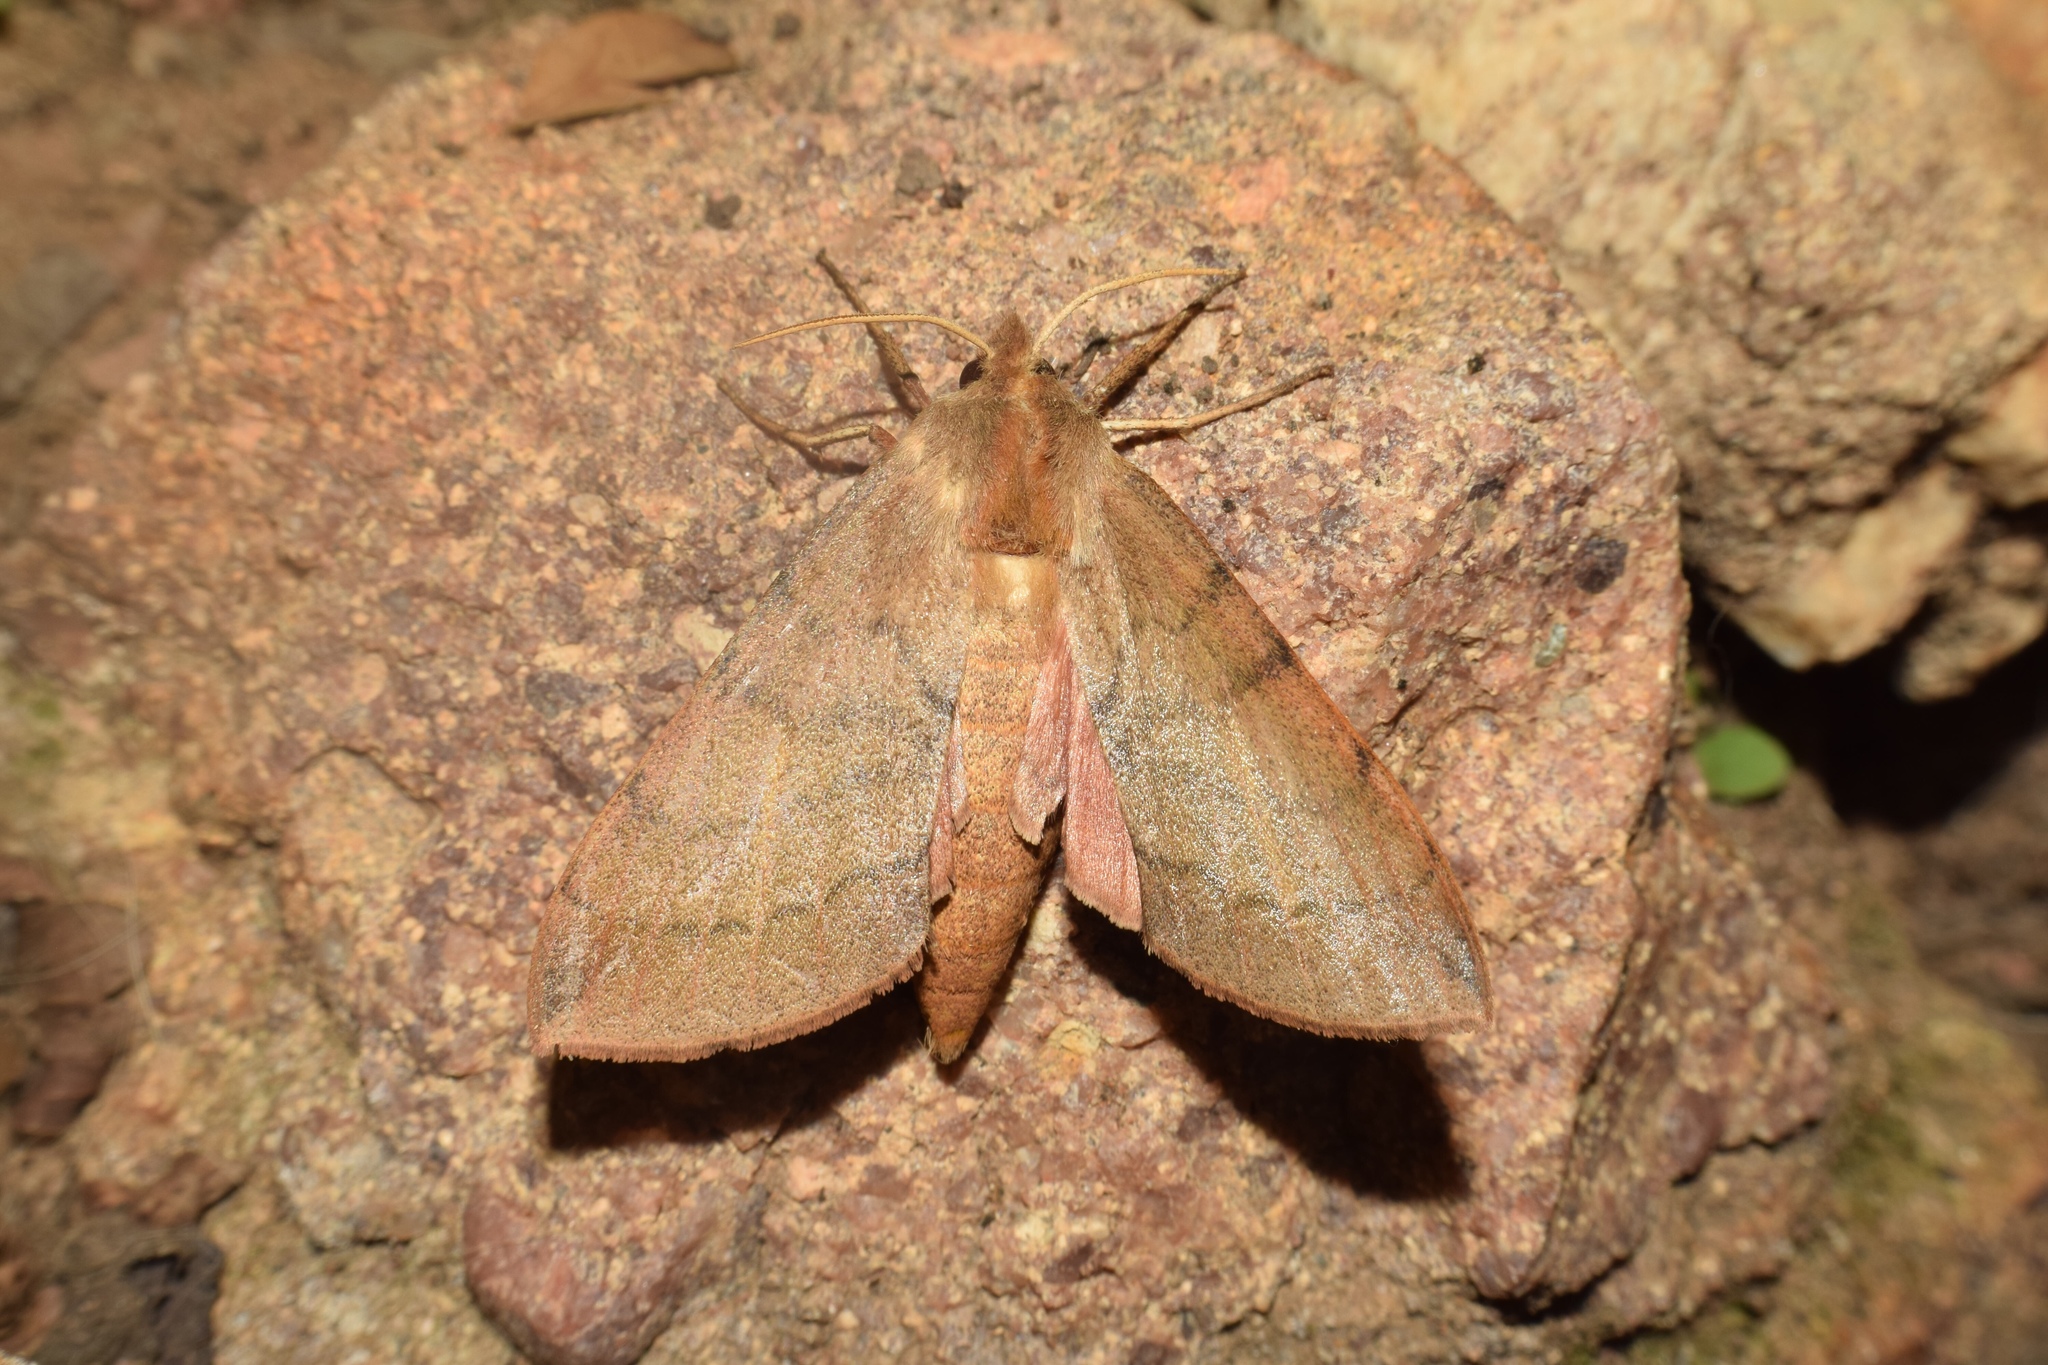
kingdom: Animalia
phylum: Arthropoda
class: Insecta
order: Lepidoptera
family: Sphingidae
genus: Pseudandriasa
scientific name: Pseudandriasa mutata
